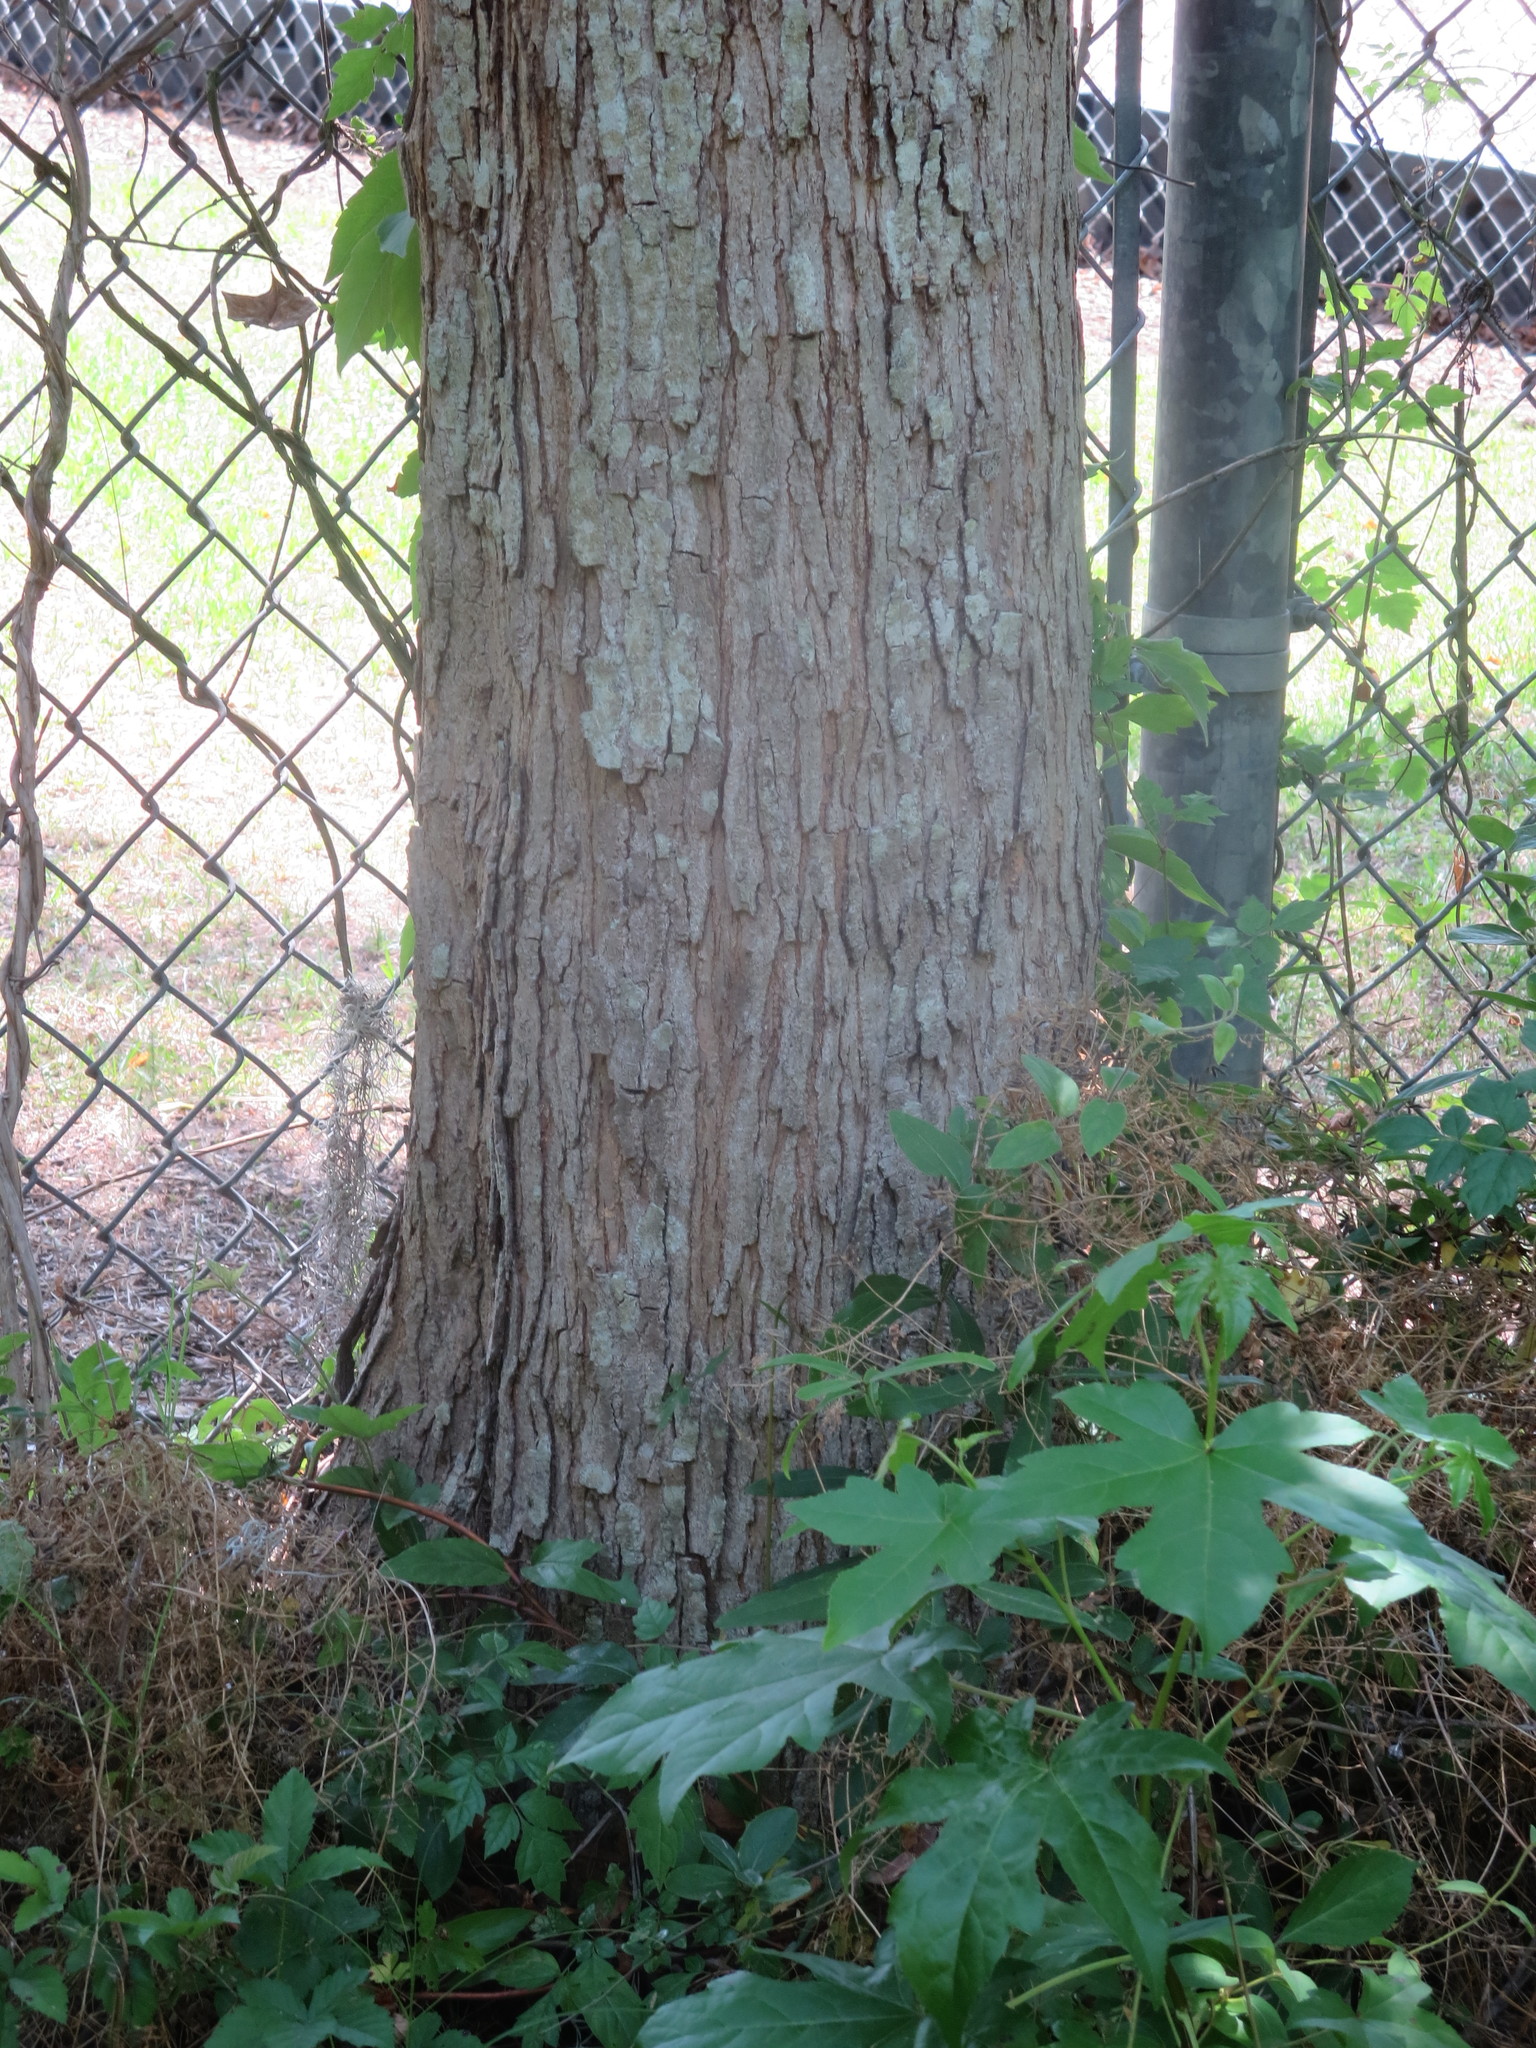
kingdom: Plantae
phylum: Tracheophyta
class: Magnoliopsida
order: Malpighiales
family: Euphorbiaceae
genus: Triadica
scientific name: Triadica sebifera
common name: Chinese tallow
